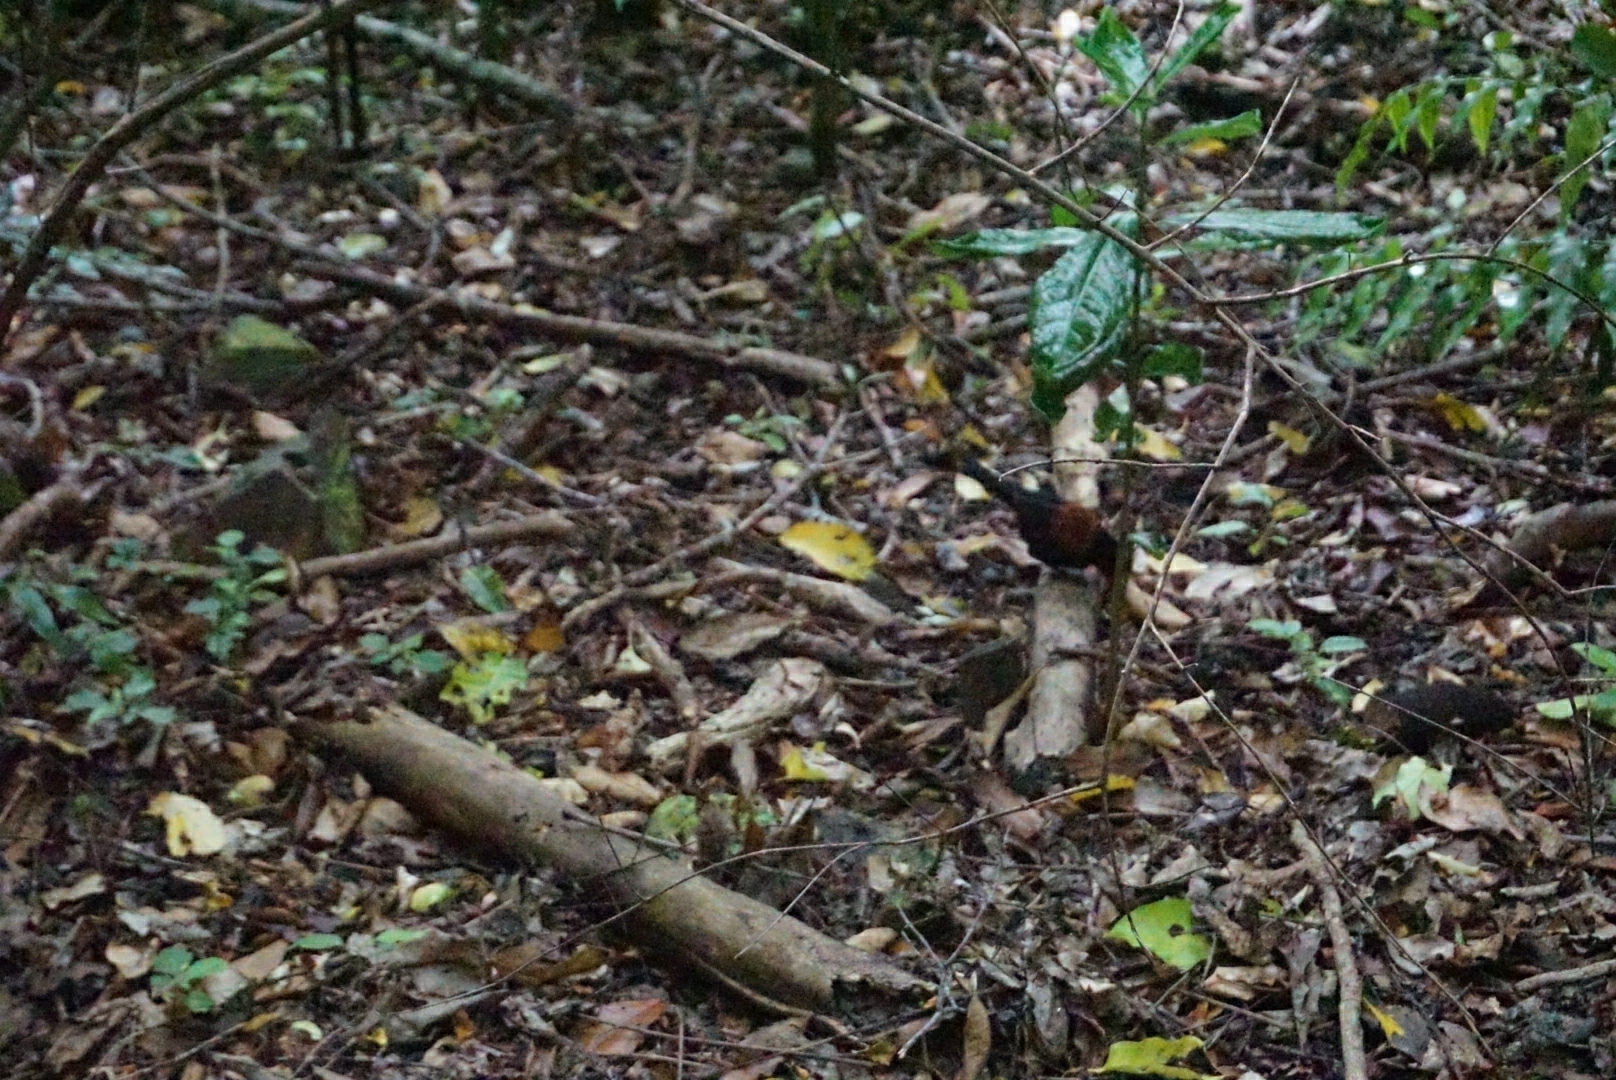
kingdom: Animalia
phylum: Chordata
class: Aves
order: Passeriformes
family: Callaeatidae
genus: Philesturnus
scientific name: Philesturnus carunculatus
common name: South island saddleback
